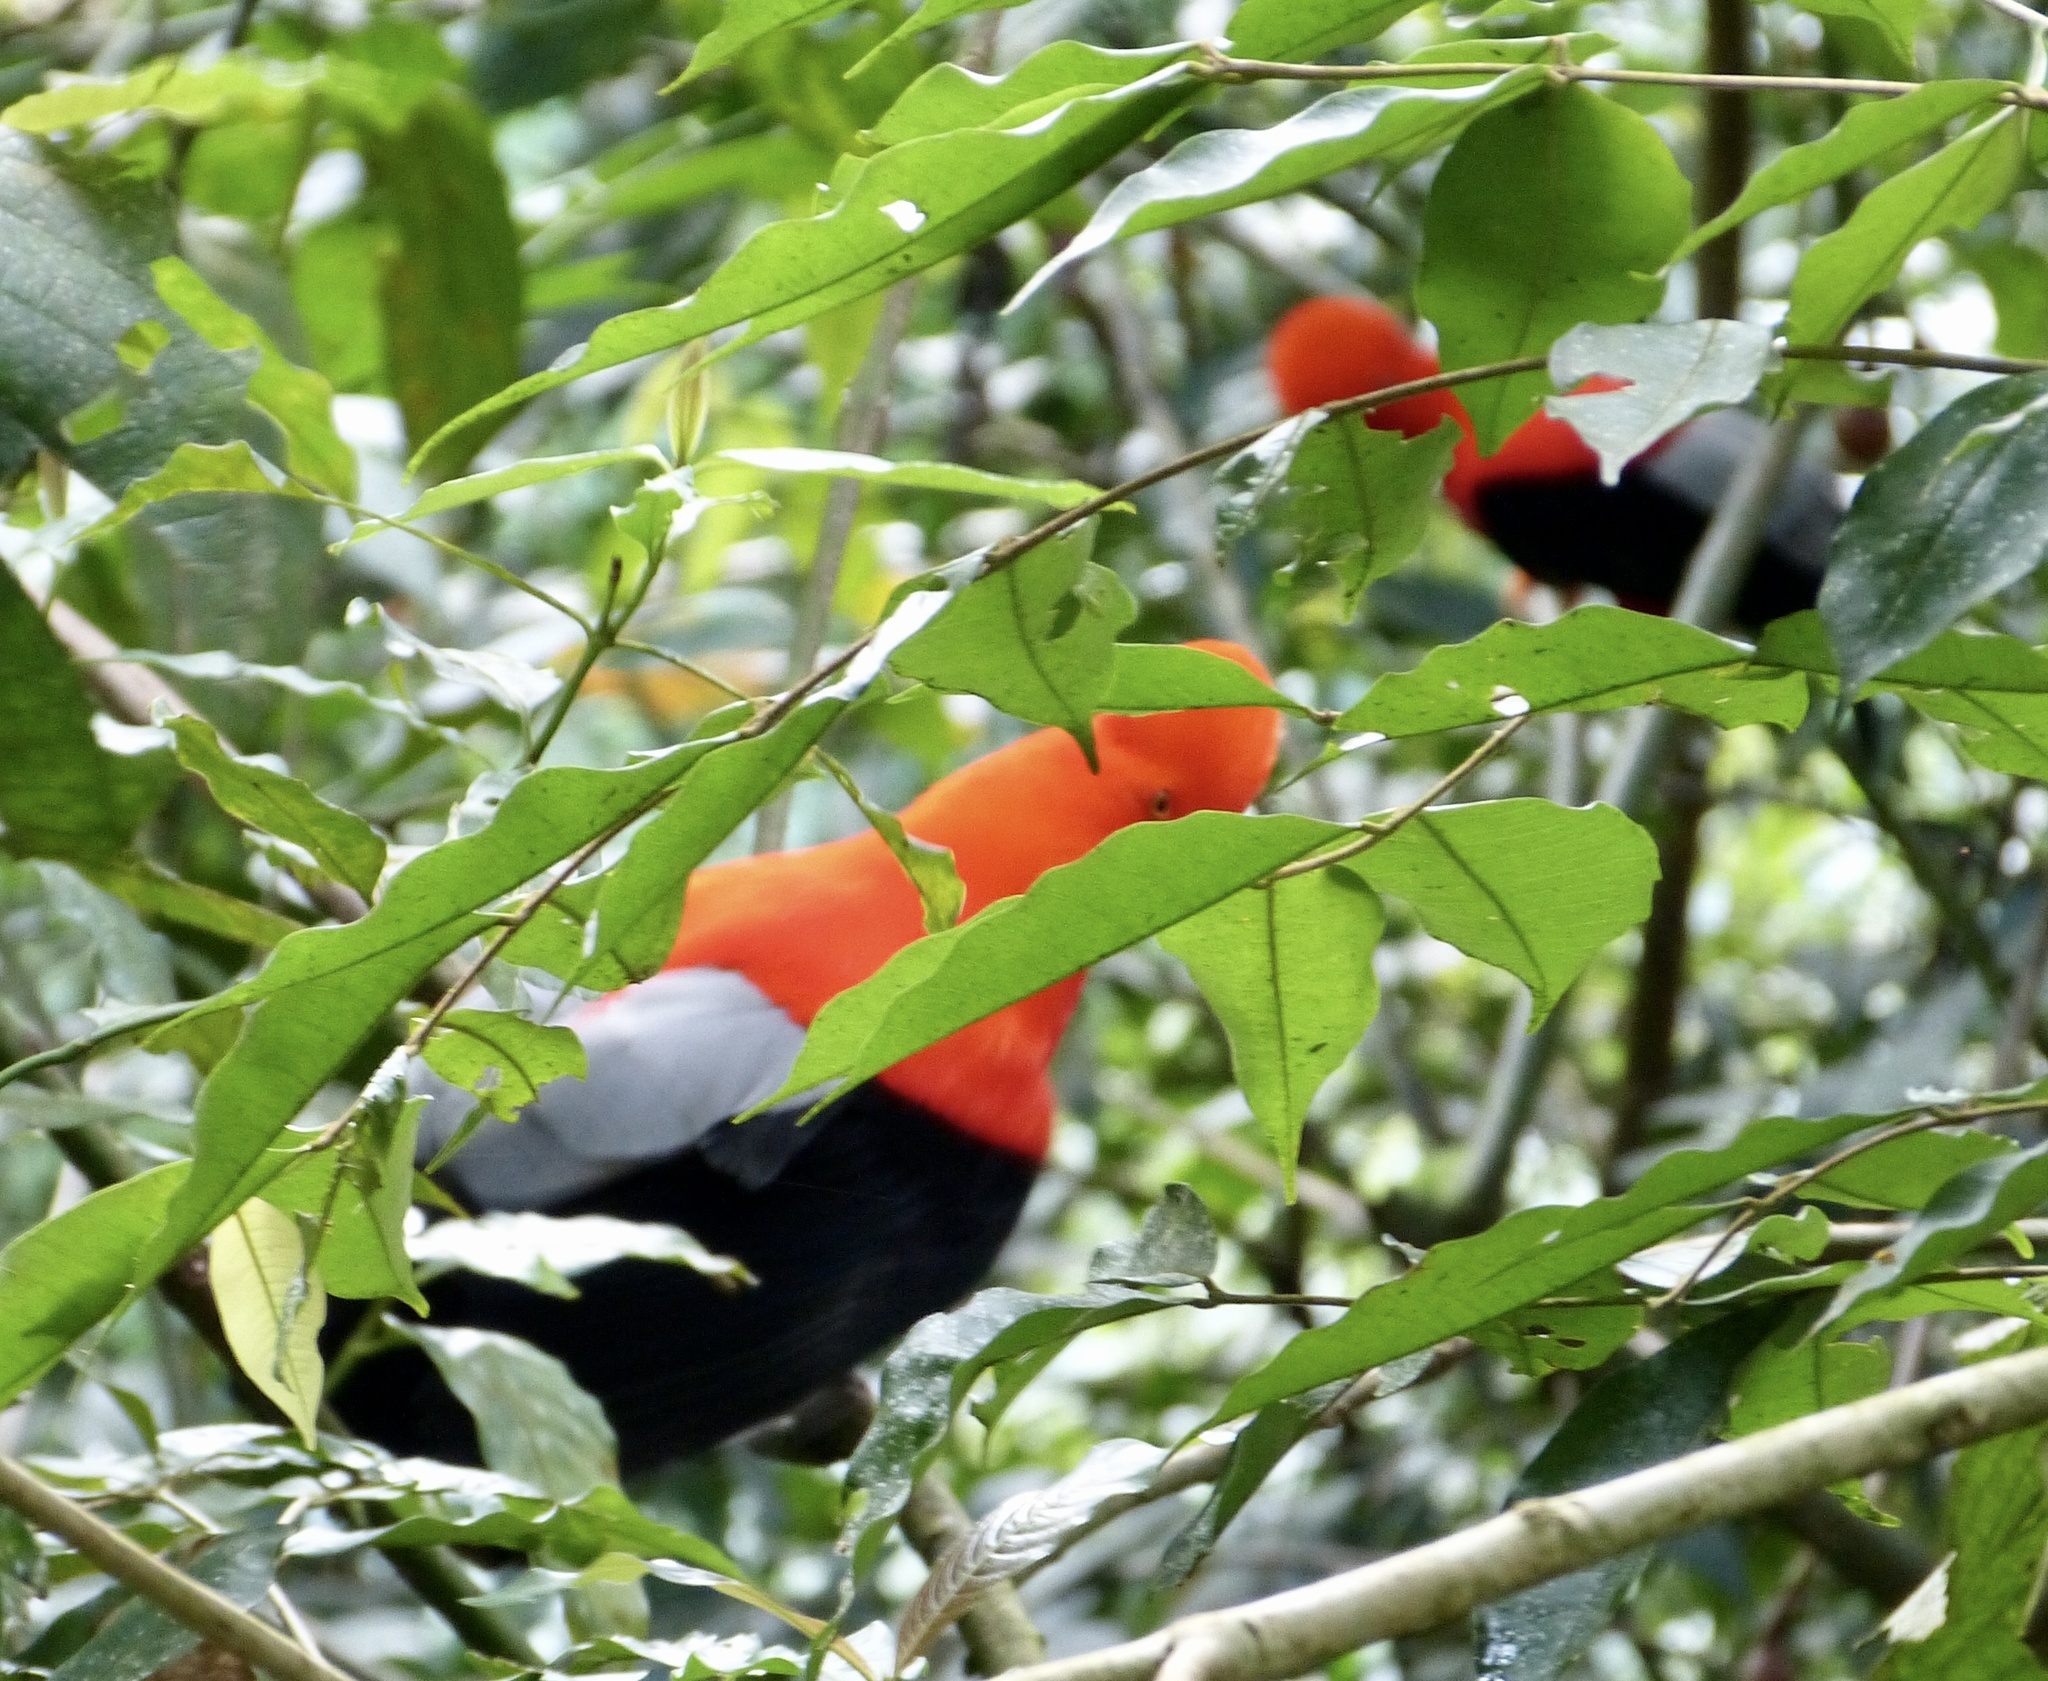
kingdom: Animalia
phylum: Chordata
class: Aves
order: Passeriformes
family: Cotingidae
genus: Rupicola
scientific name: Rupicola peruvianus
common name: Andean cock-of-the-rock
